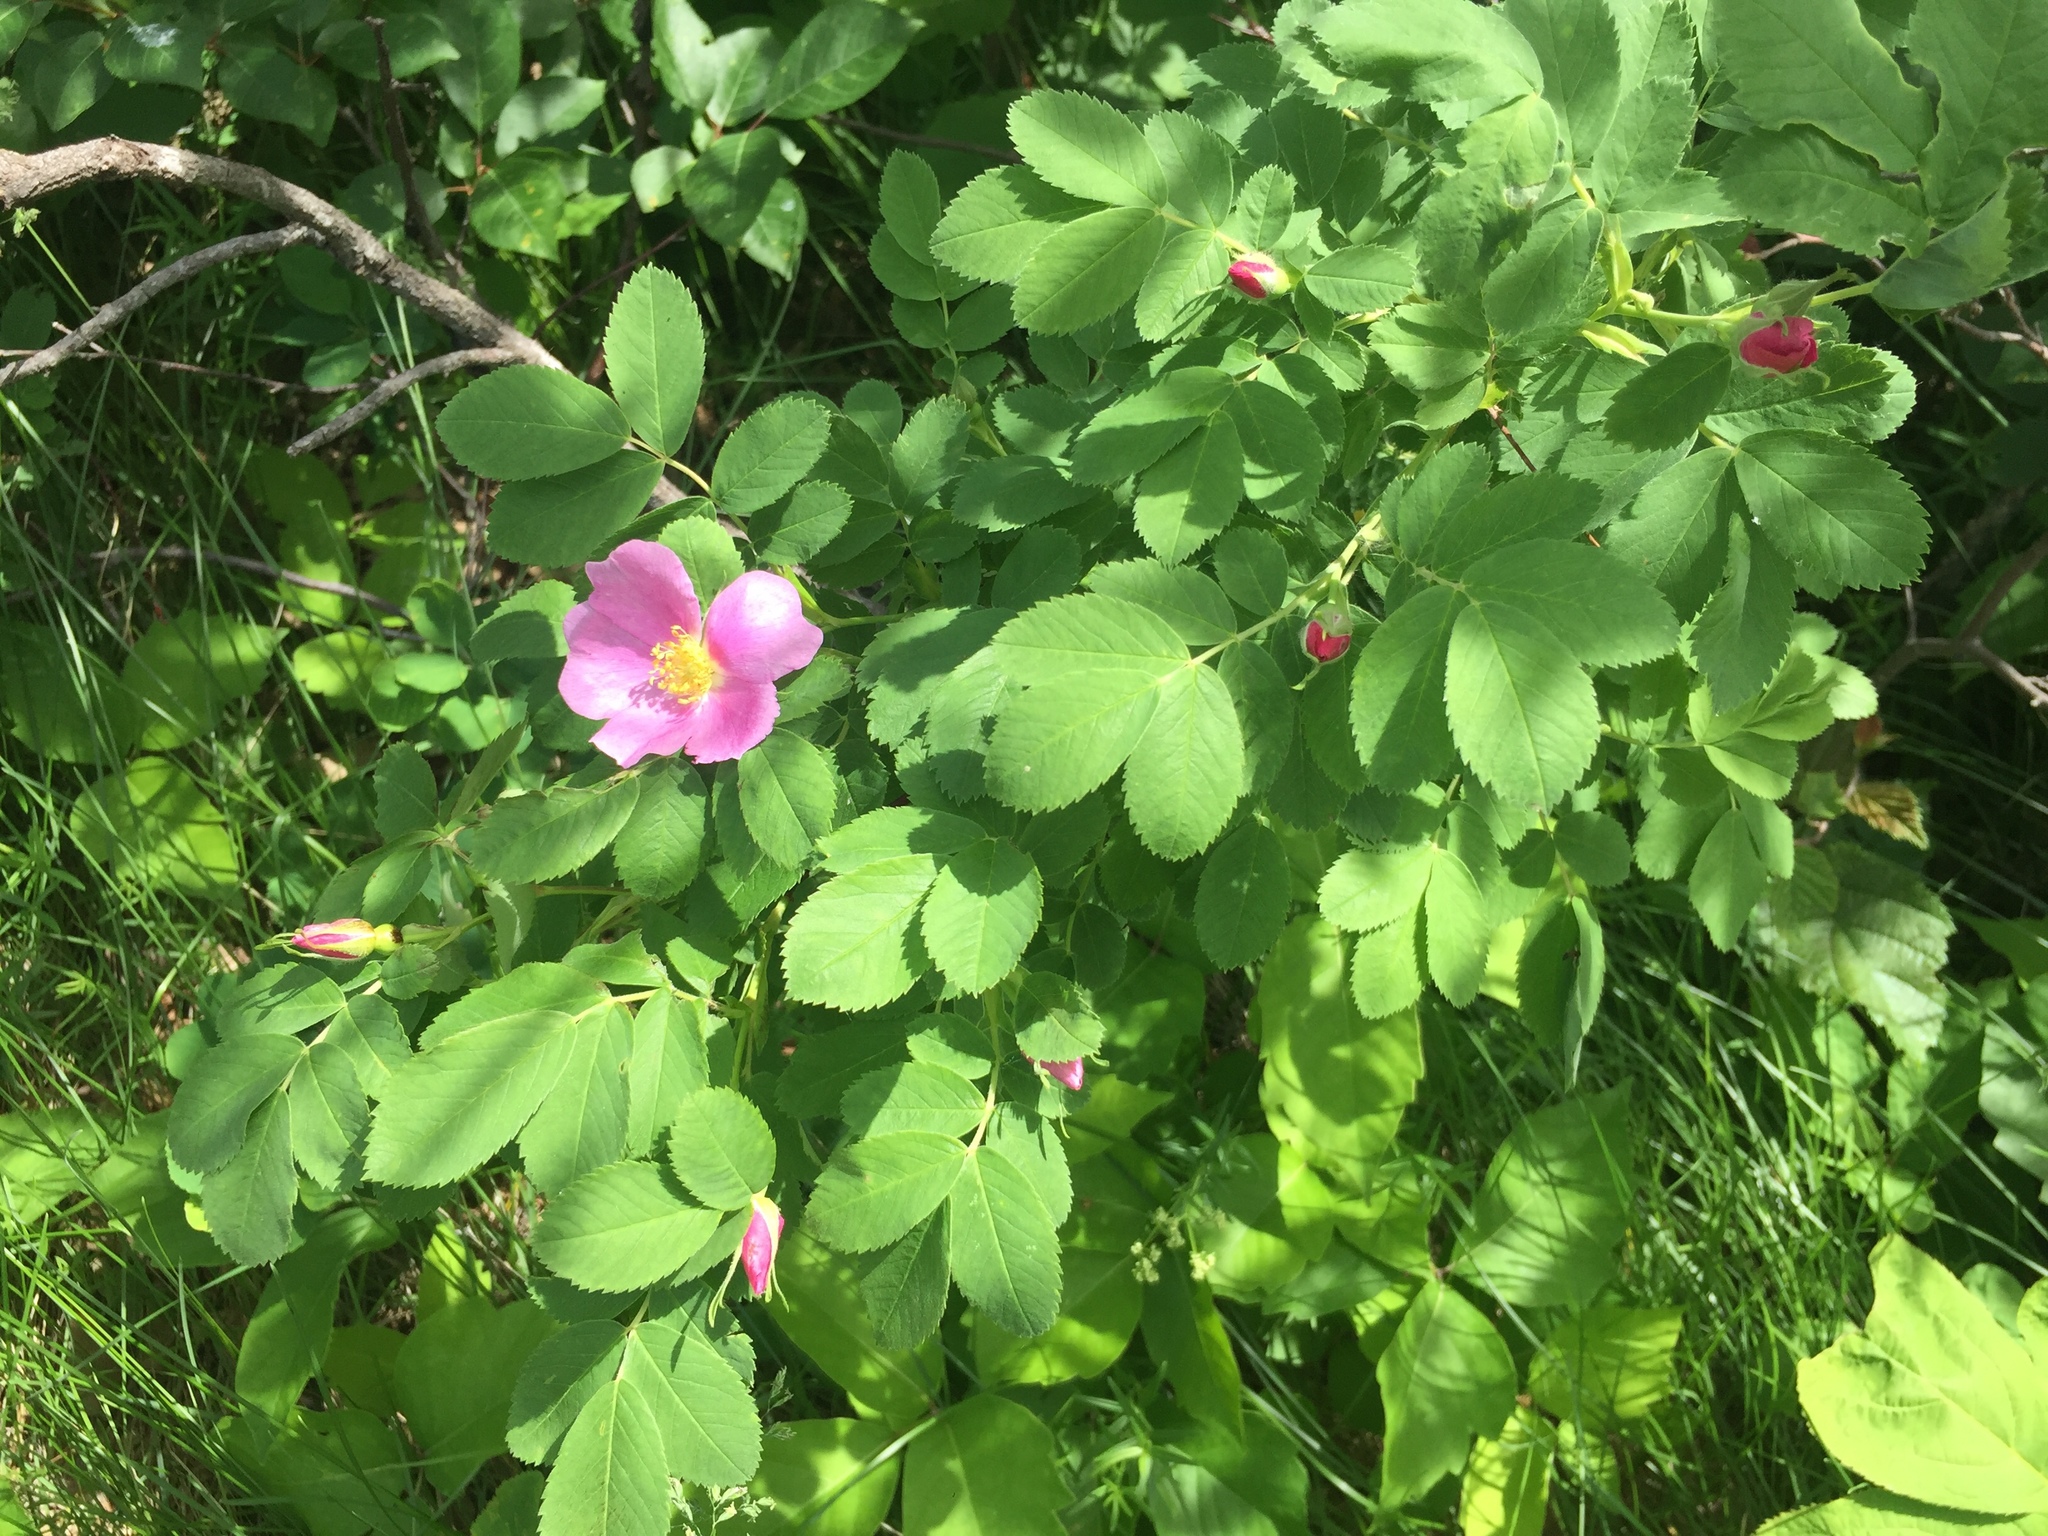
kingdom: Plantae
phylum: Tracheophyta
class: Magnoliopsida
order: Rosales
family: Rosaceae
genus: Rosa
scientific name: Rosa acicularis
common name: Prickly rose
